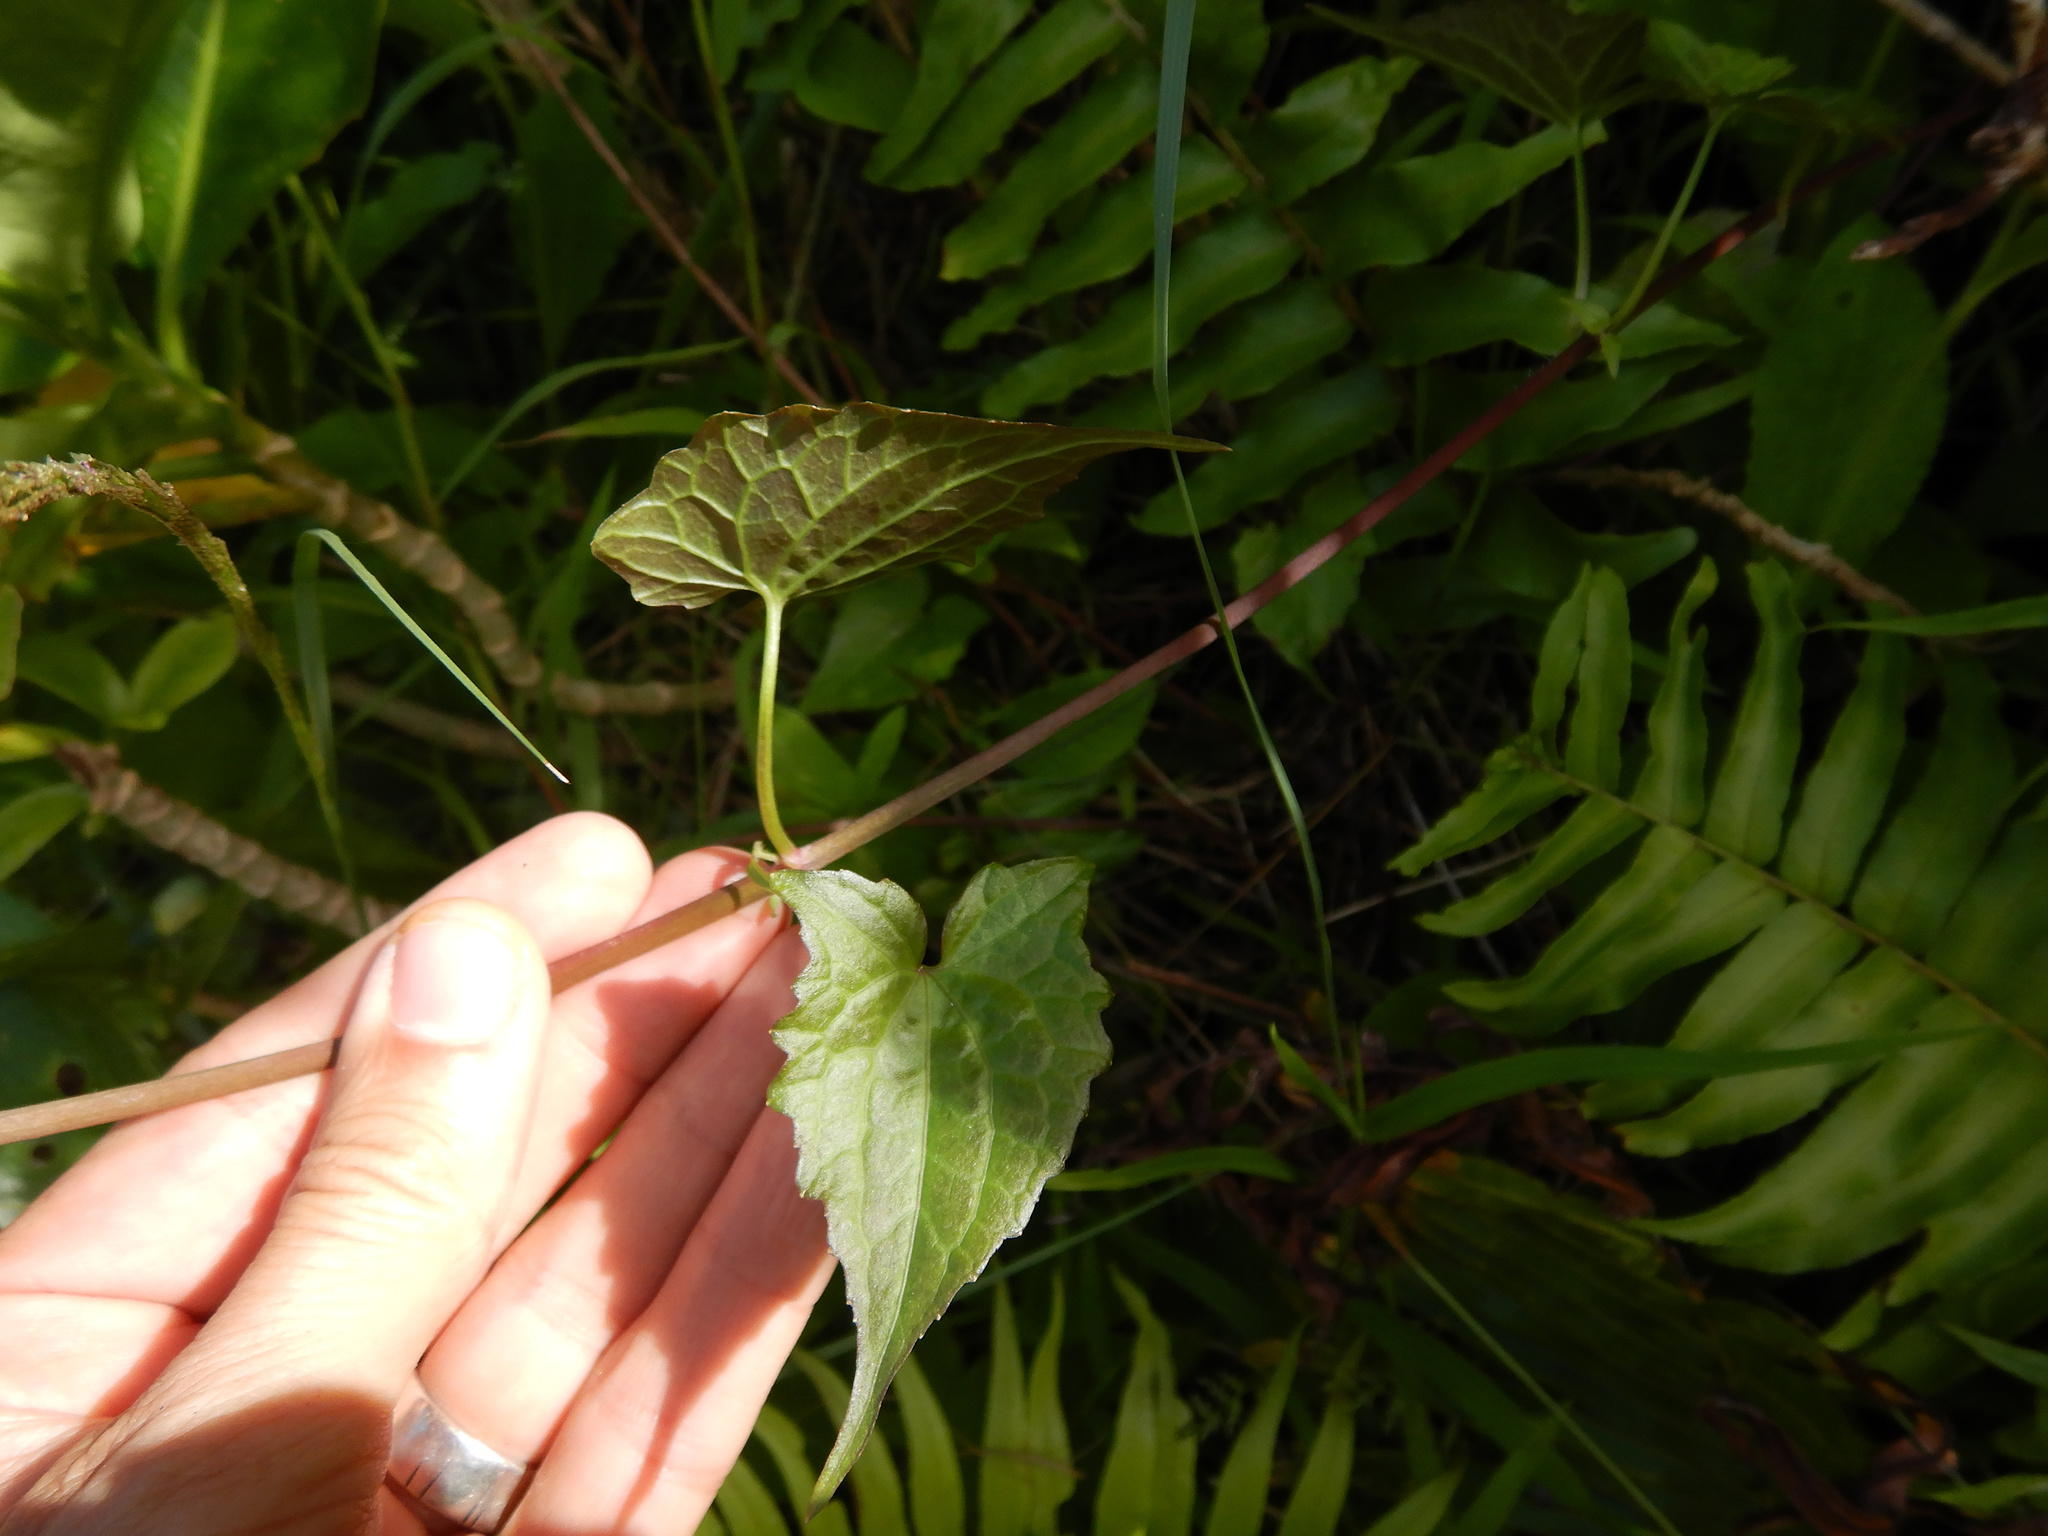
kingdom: Plantae
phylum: Tracheophyta
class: Magnoliopsida
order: Asterales
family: Asteraceae
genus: Mikania
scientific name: Mikania micrantha
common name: Mile-a-minute
